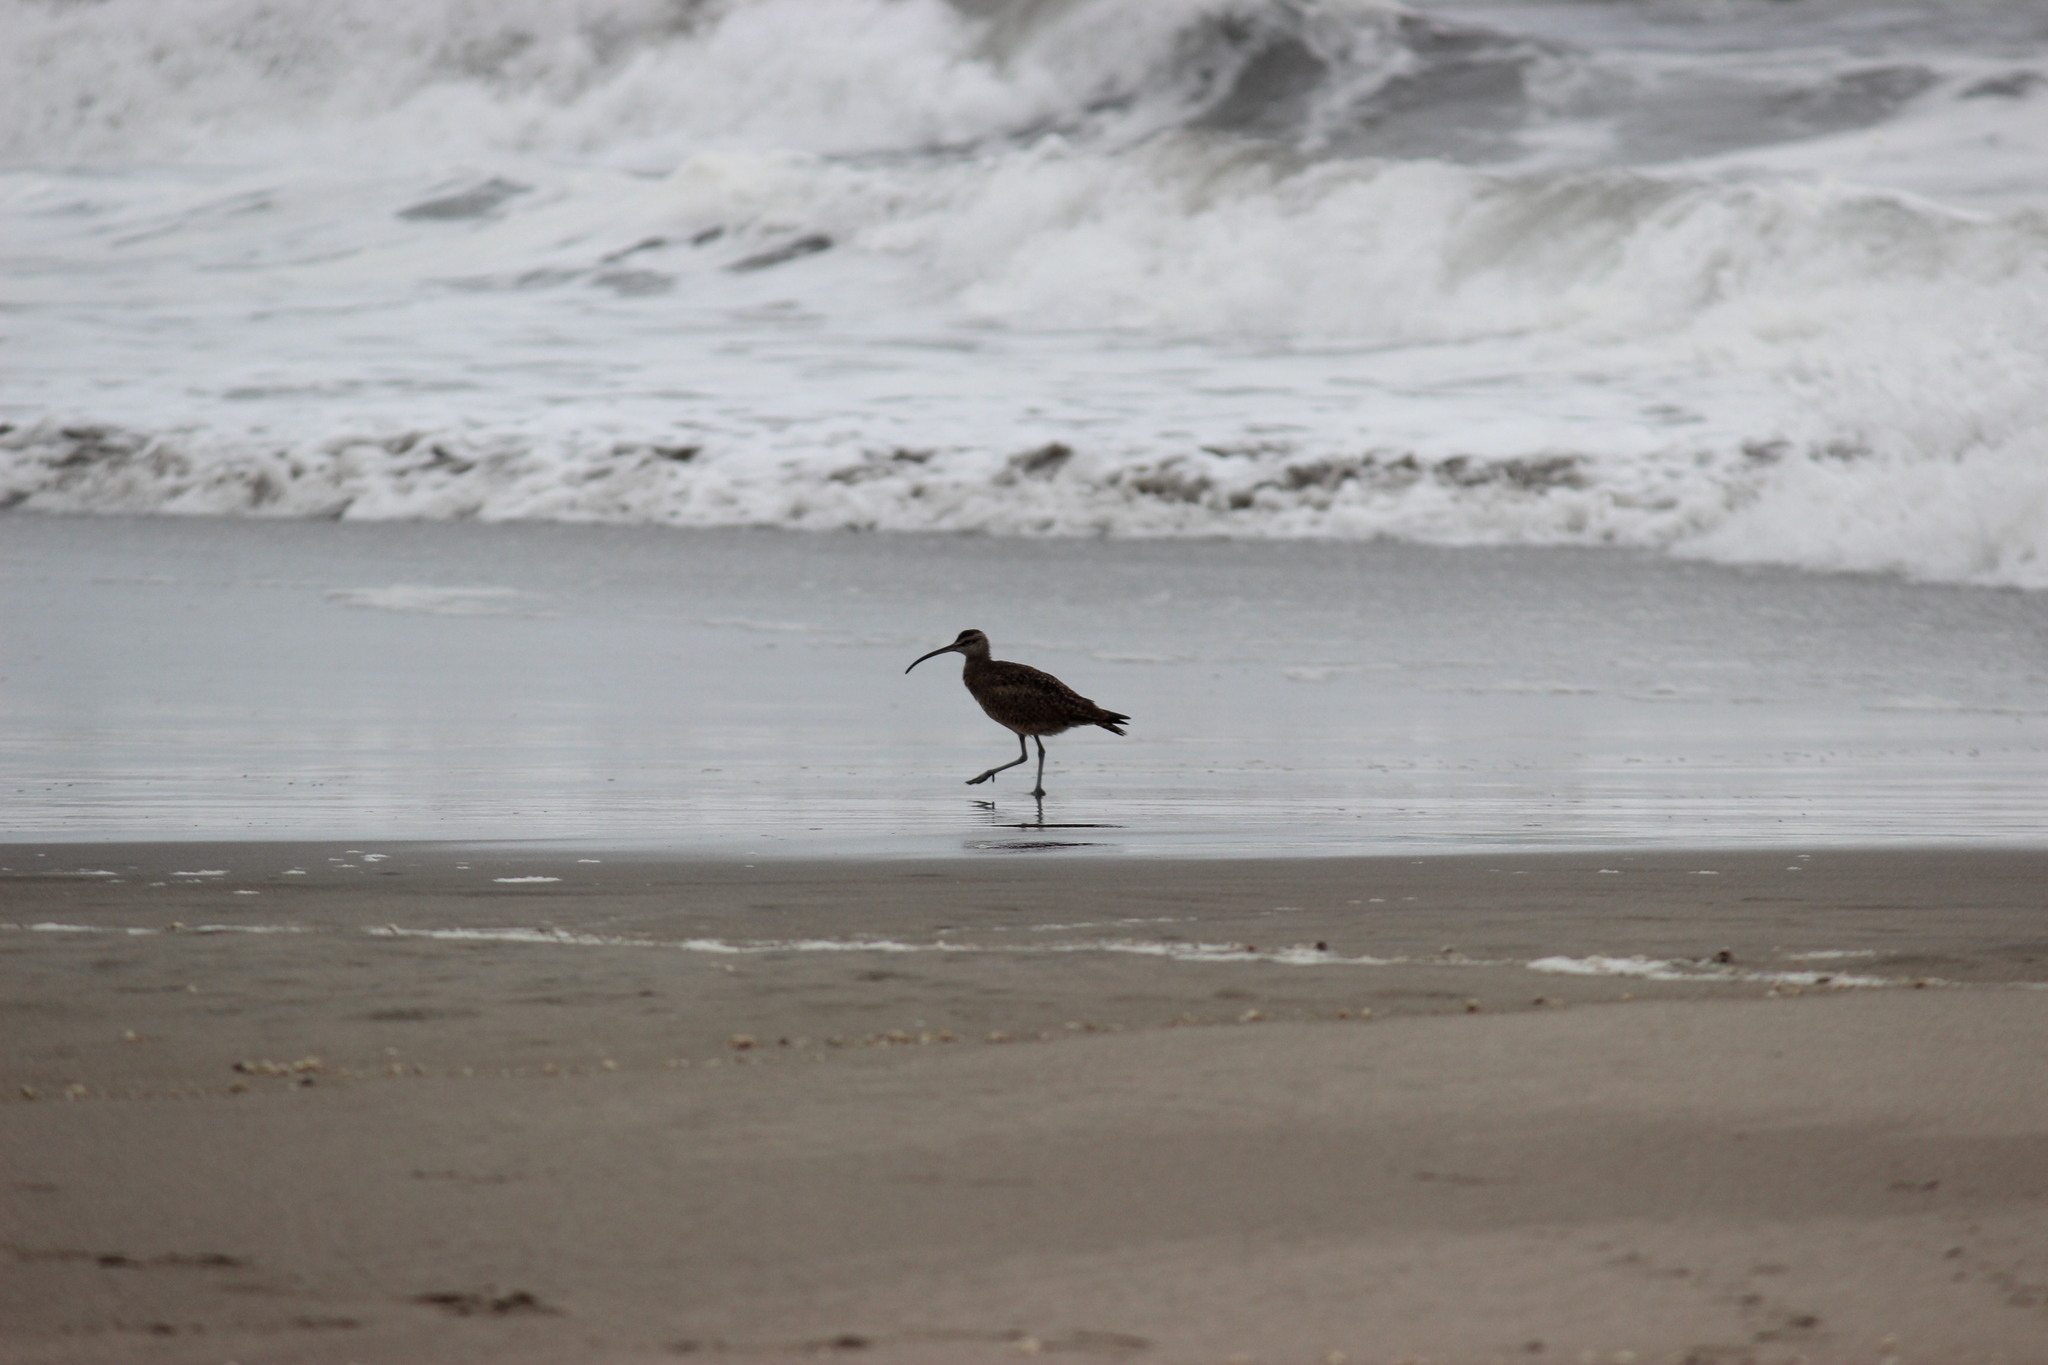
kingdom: Animalia
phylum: Chordata
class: Aves
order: Charadriiformes
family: Scolopacidae
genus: Numenius
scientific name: Numenius phaeopus
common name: Whimbrel
